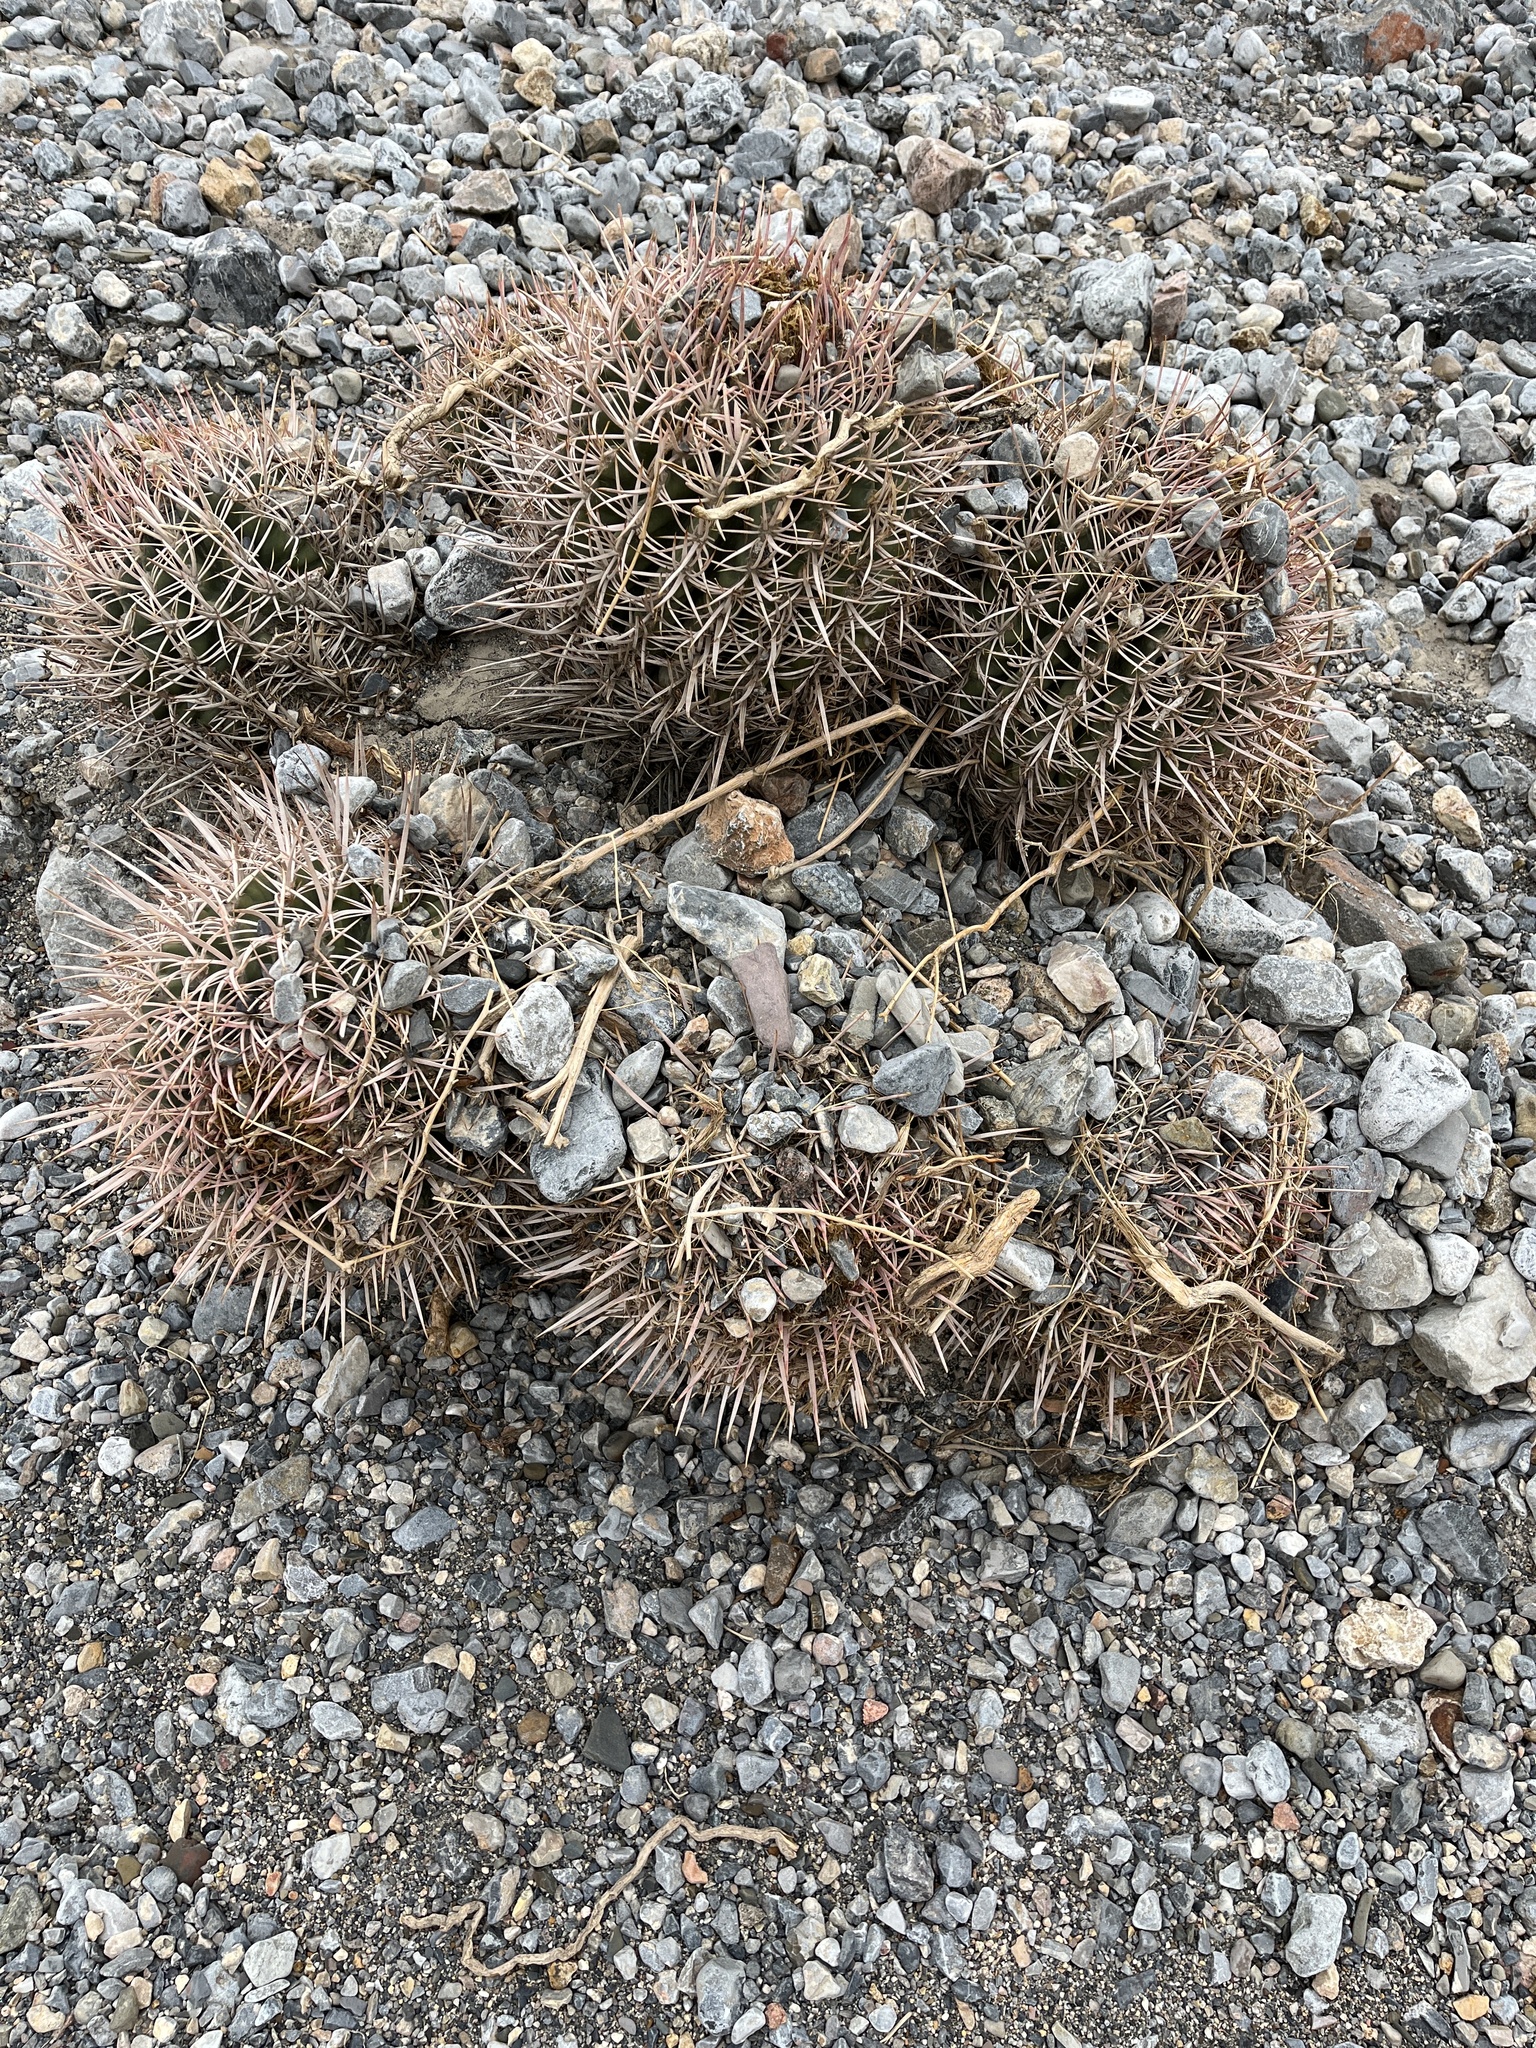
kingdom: Plantae
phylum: Tracheophyta
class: Magnoliopsida
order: Caryophyllales
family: Cactaceae
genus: Echinocactus
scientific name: Echinocactus polycephalus
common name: Cottontop cactus
